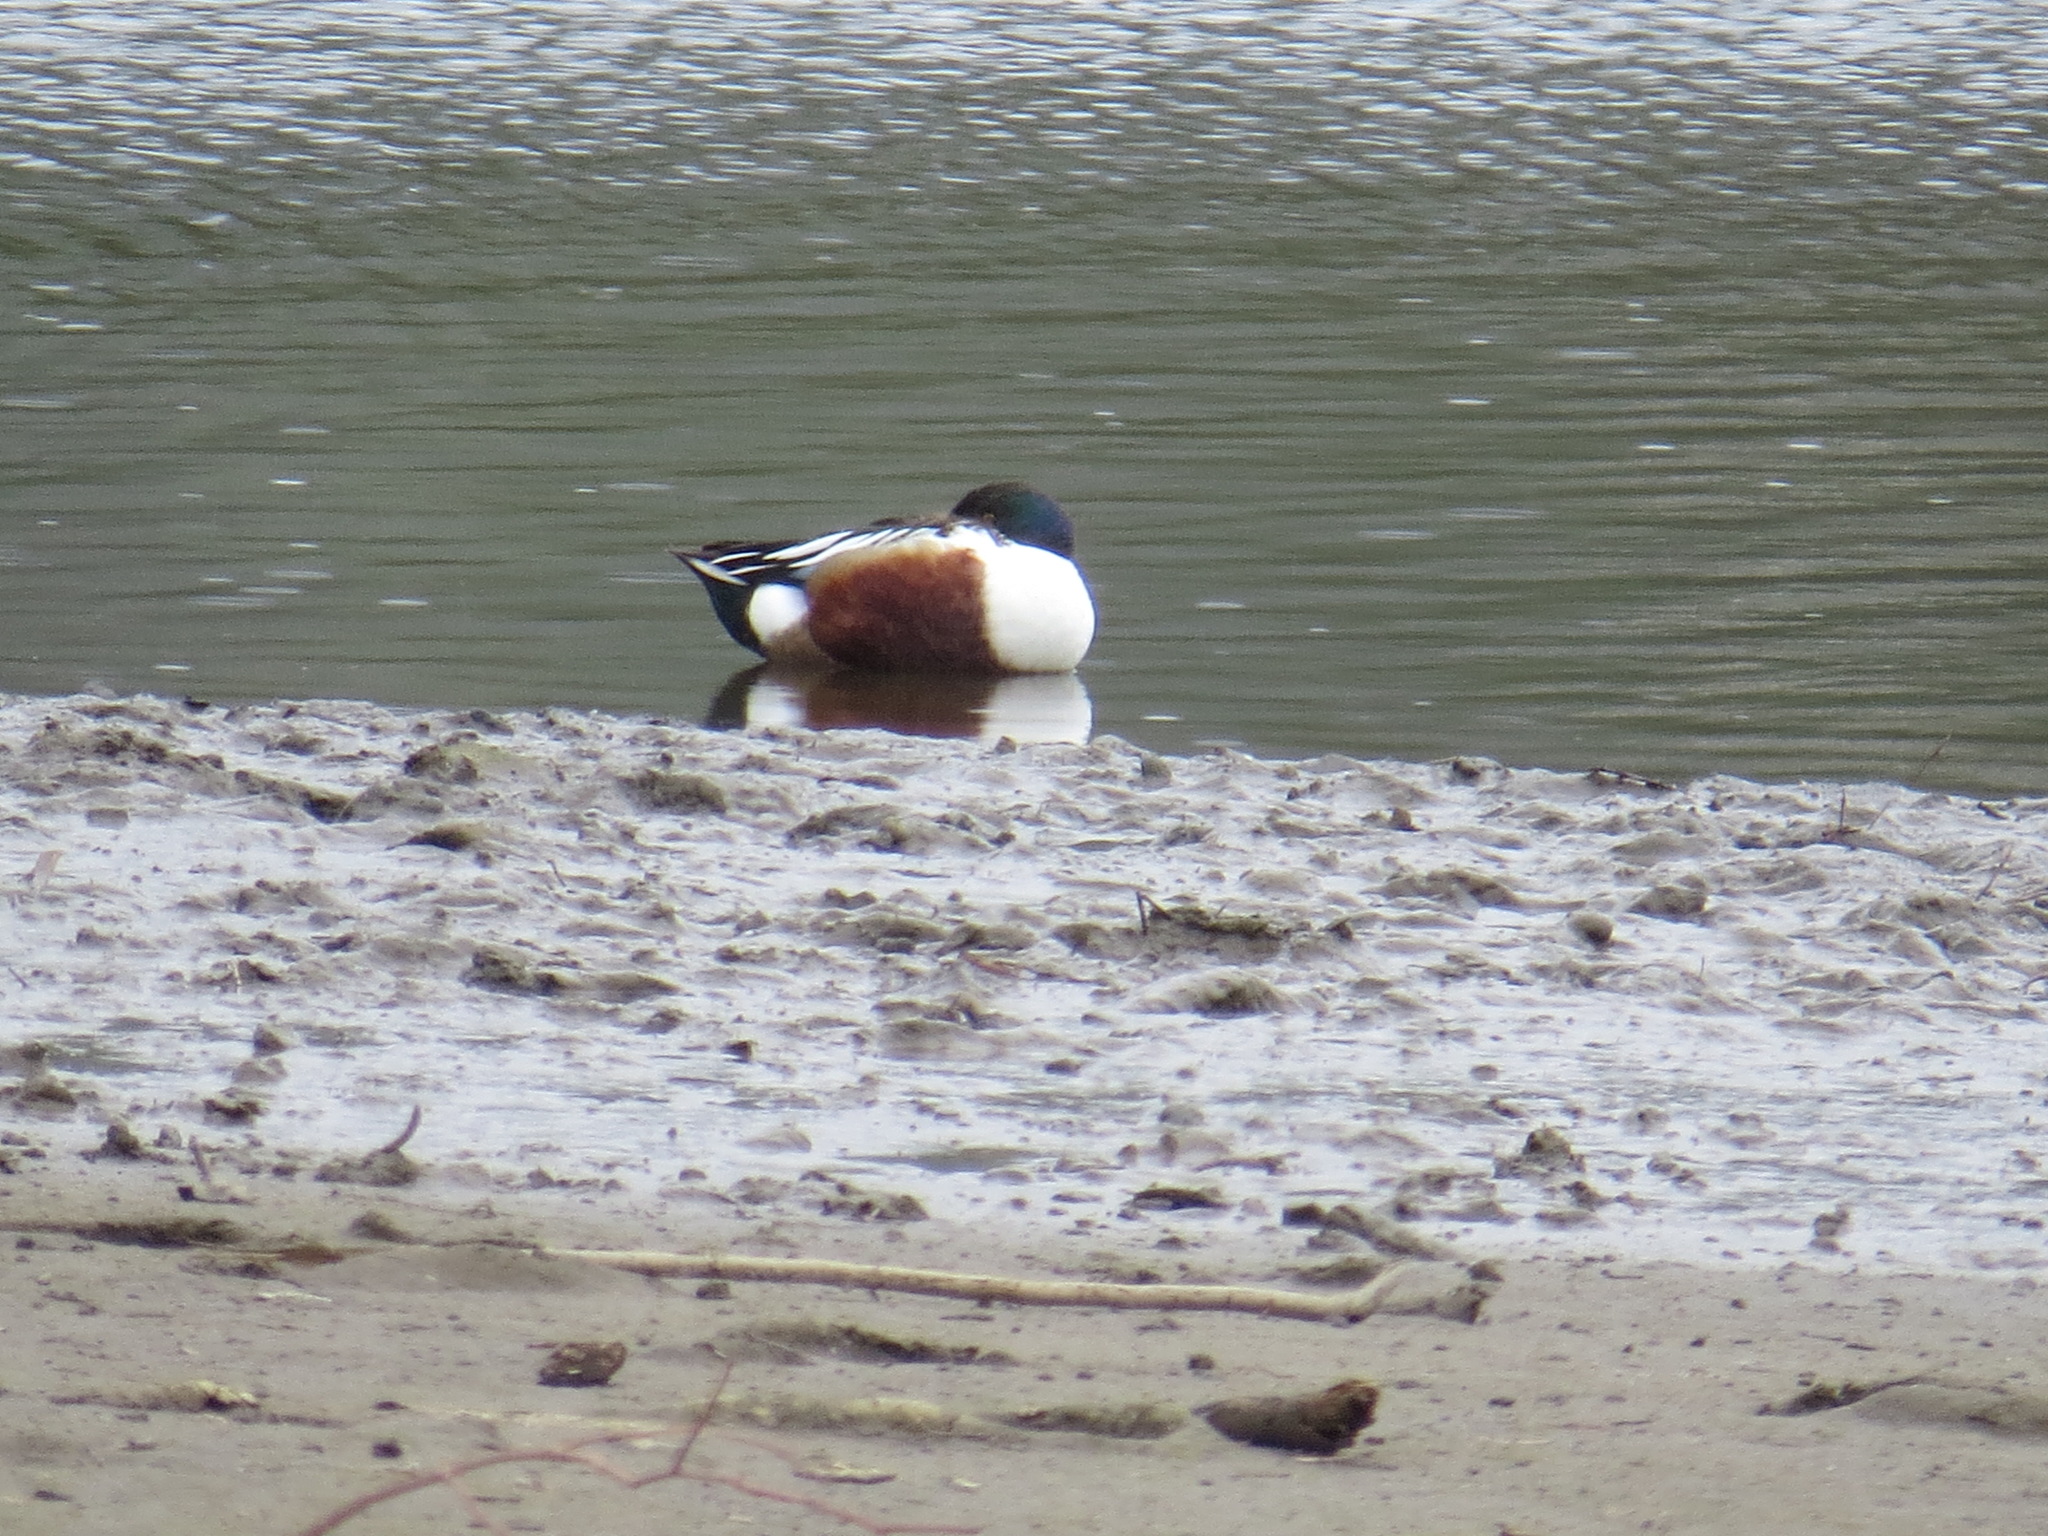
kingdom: Animalia
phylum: Chordata
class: Aves
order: Anseriformes
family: Anatidae
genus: Spatula
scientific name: Spatula clypeata
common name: Northern shoveler
